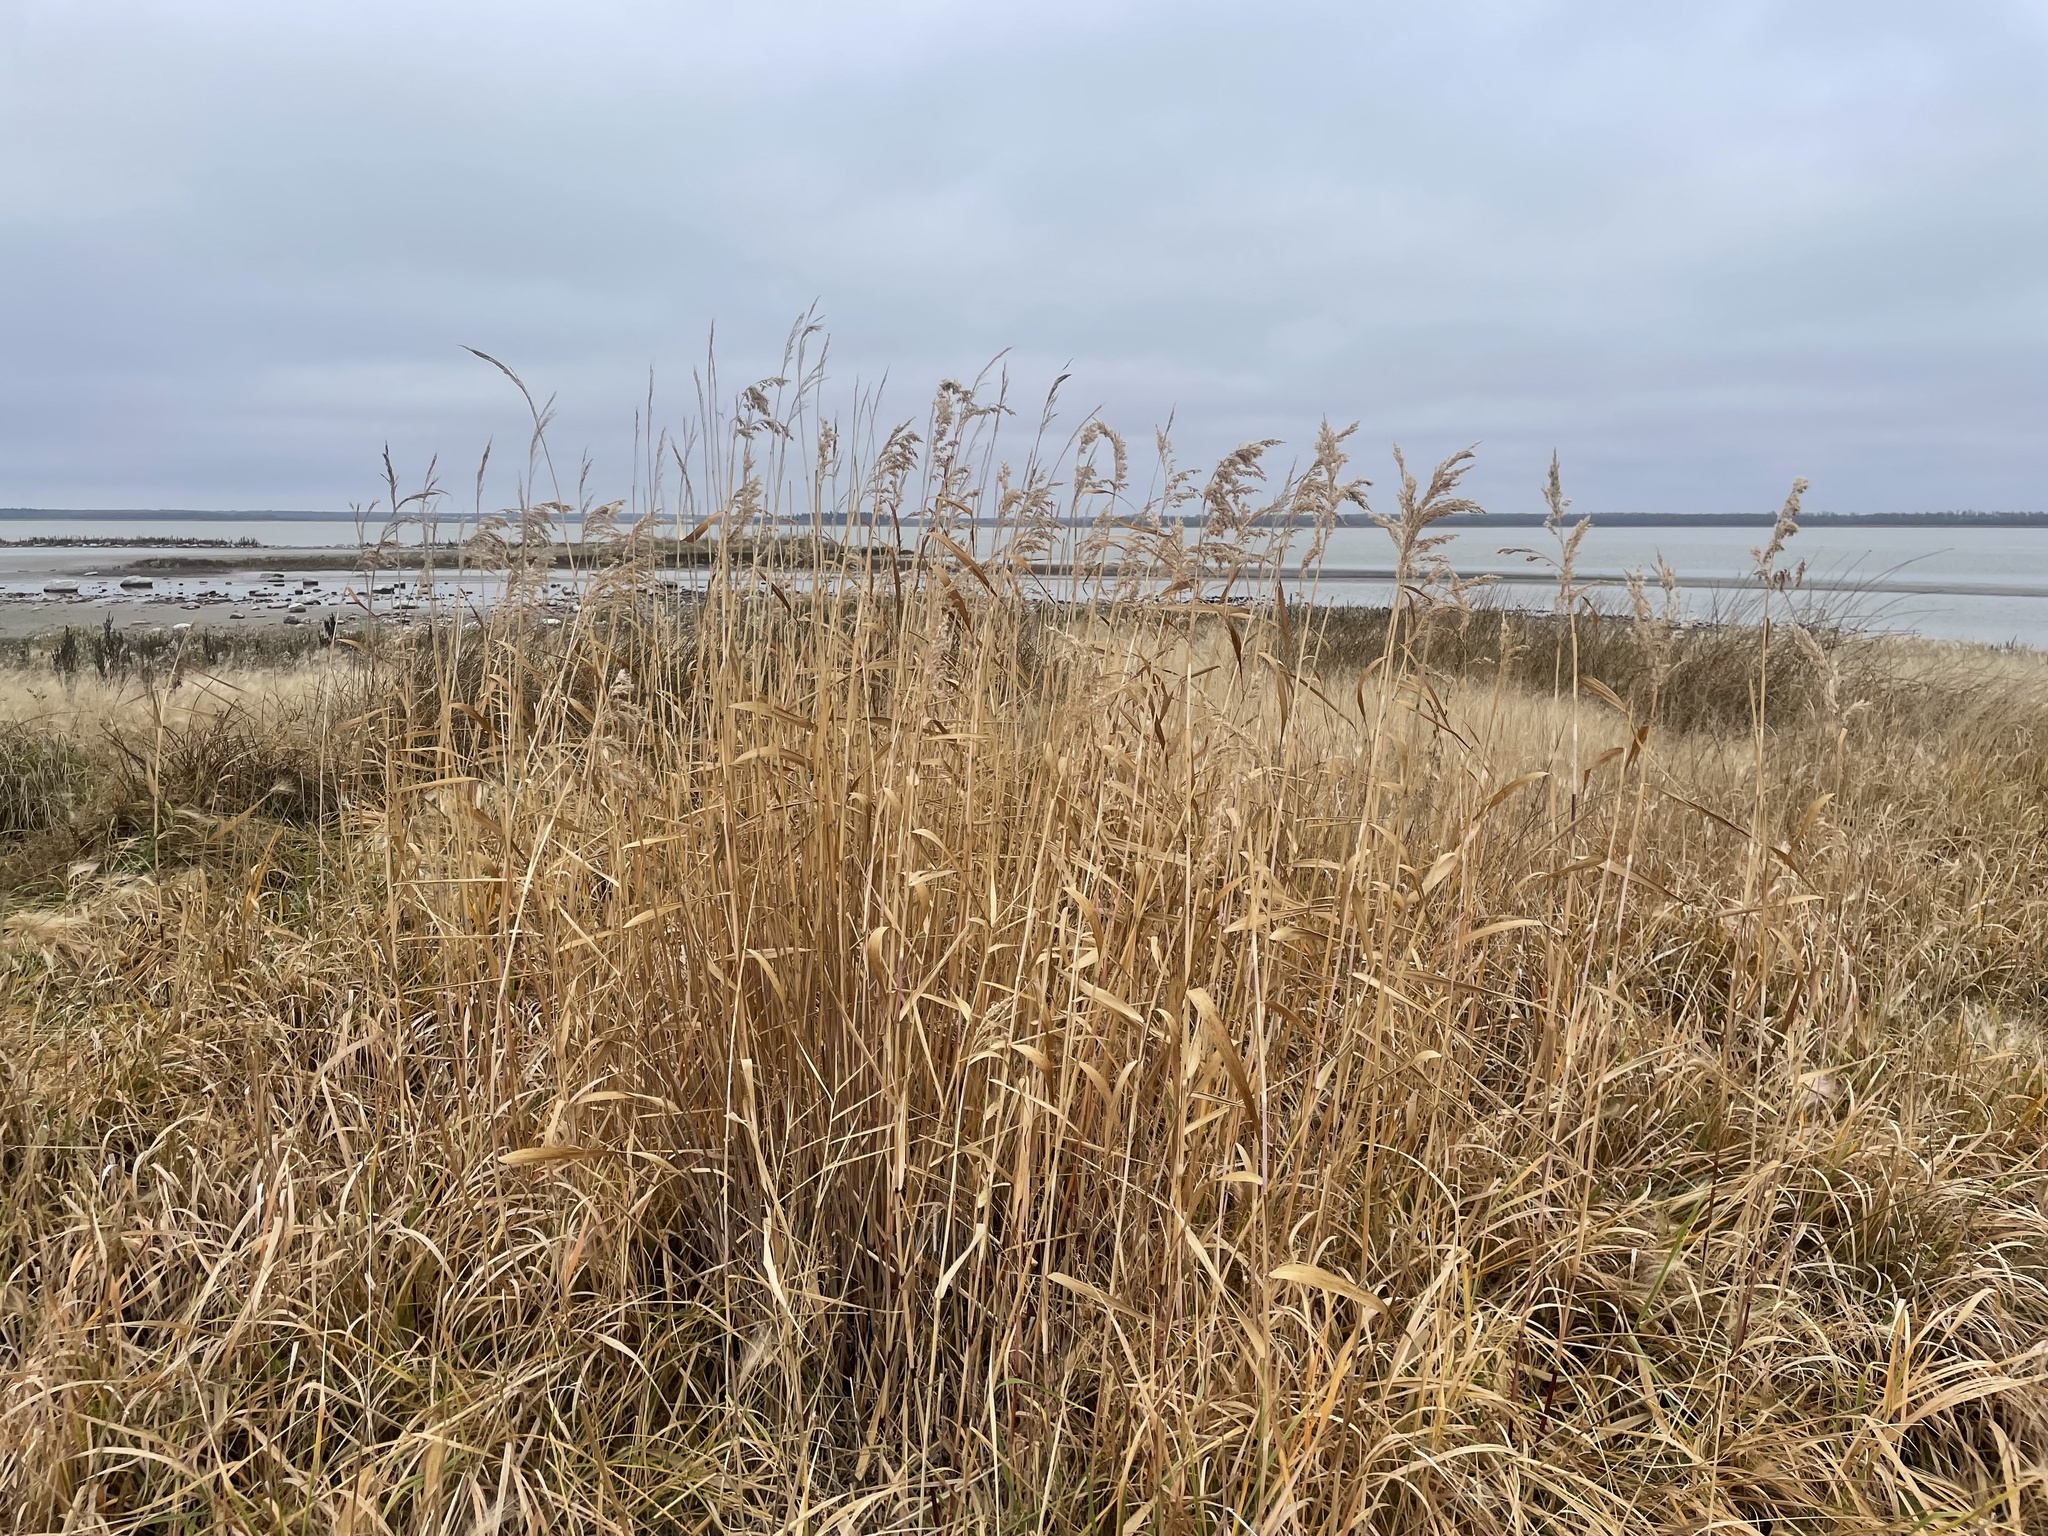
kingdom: Plantae
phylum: Tracheophyta
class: Liliopsida
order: Poales
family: Poaceae
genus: Phragmites
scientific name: Phragmites australis
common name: Common reed
